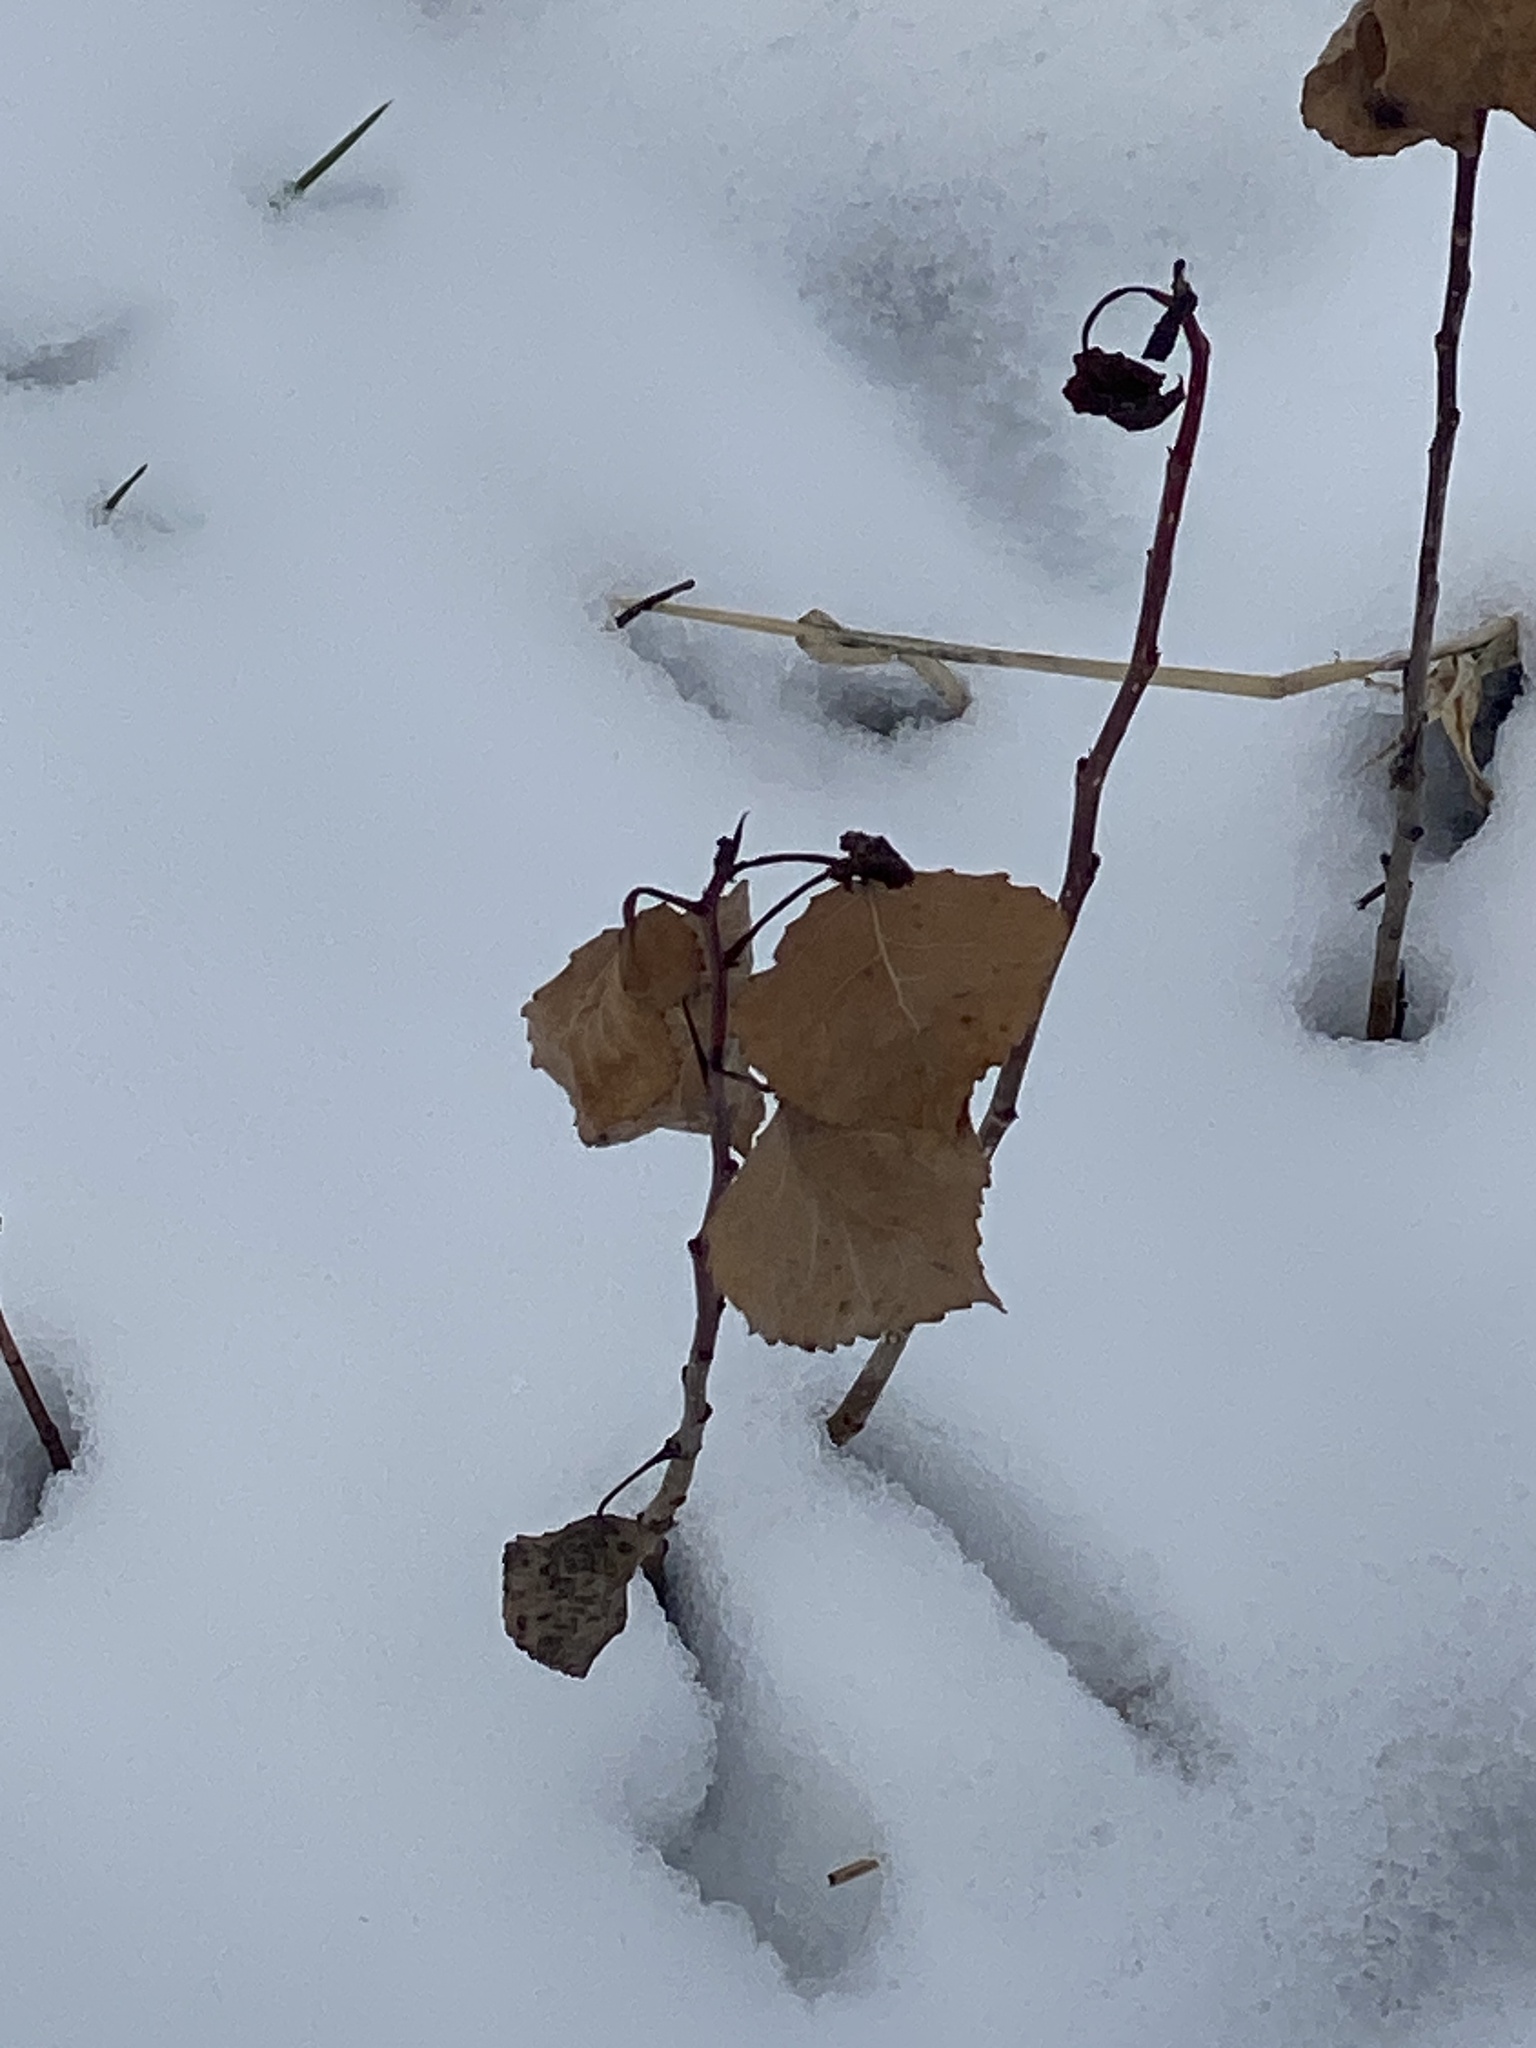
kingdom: Plantae
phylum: Tracheophyta
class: Magnoliopsida
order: Malpighiales
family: Salicaceae
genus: Populus
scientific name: Populus deltoides
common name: Eastern cottonwood
